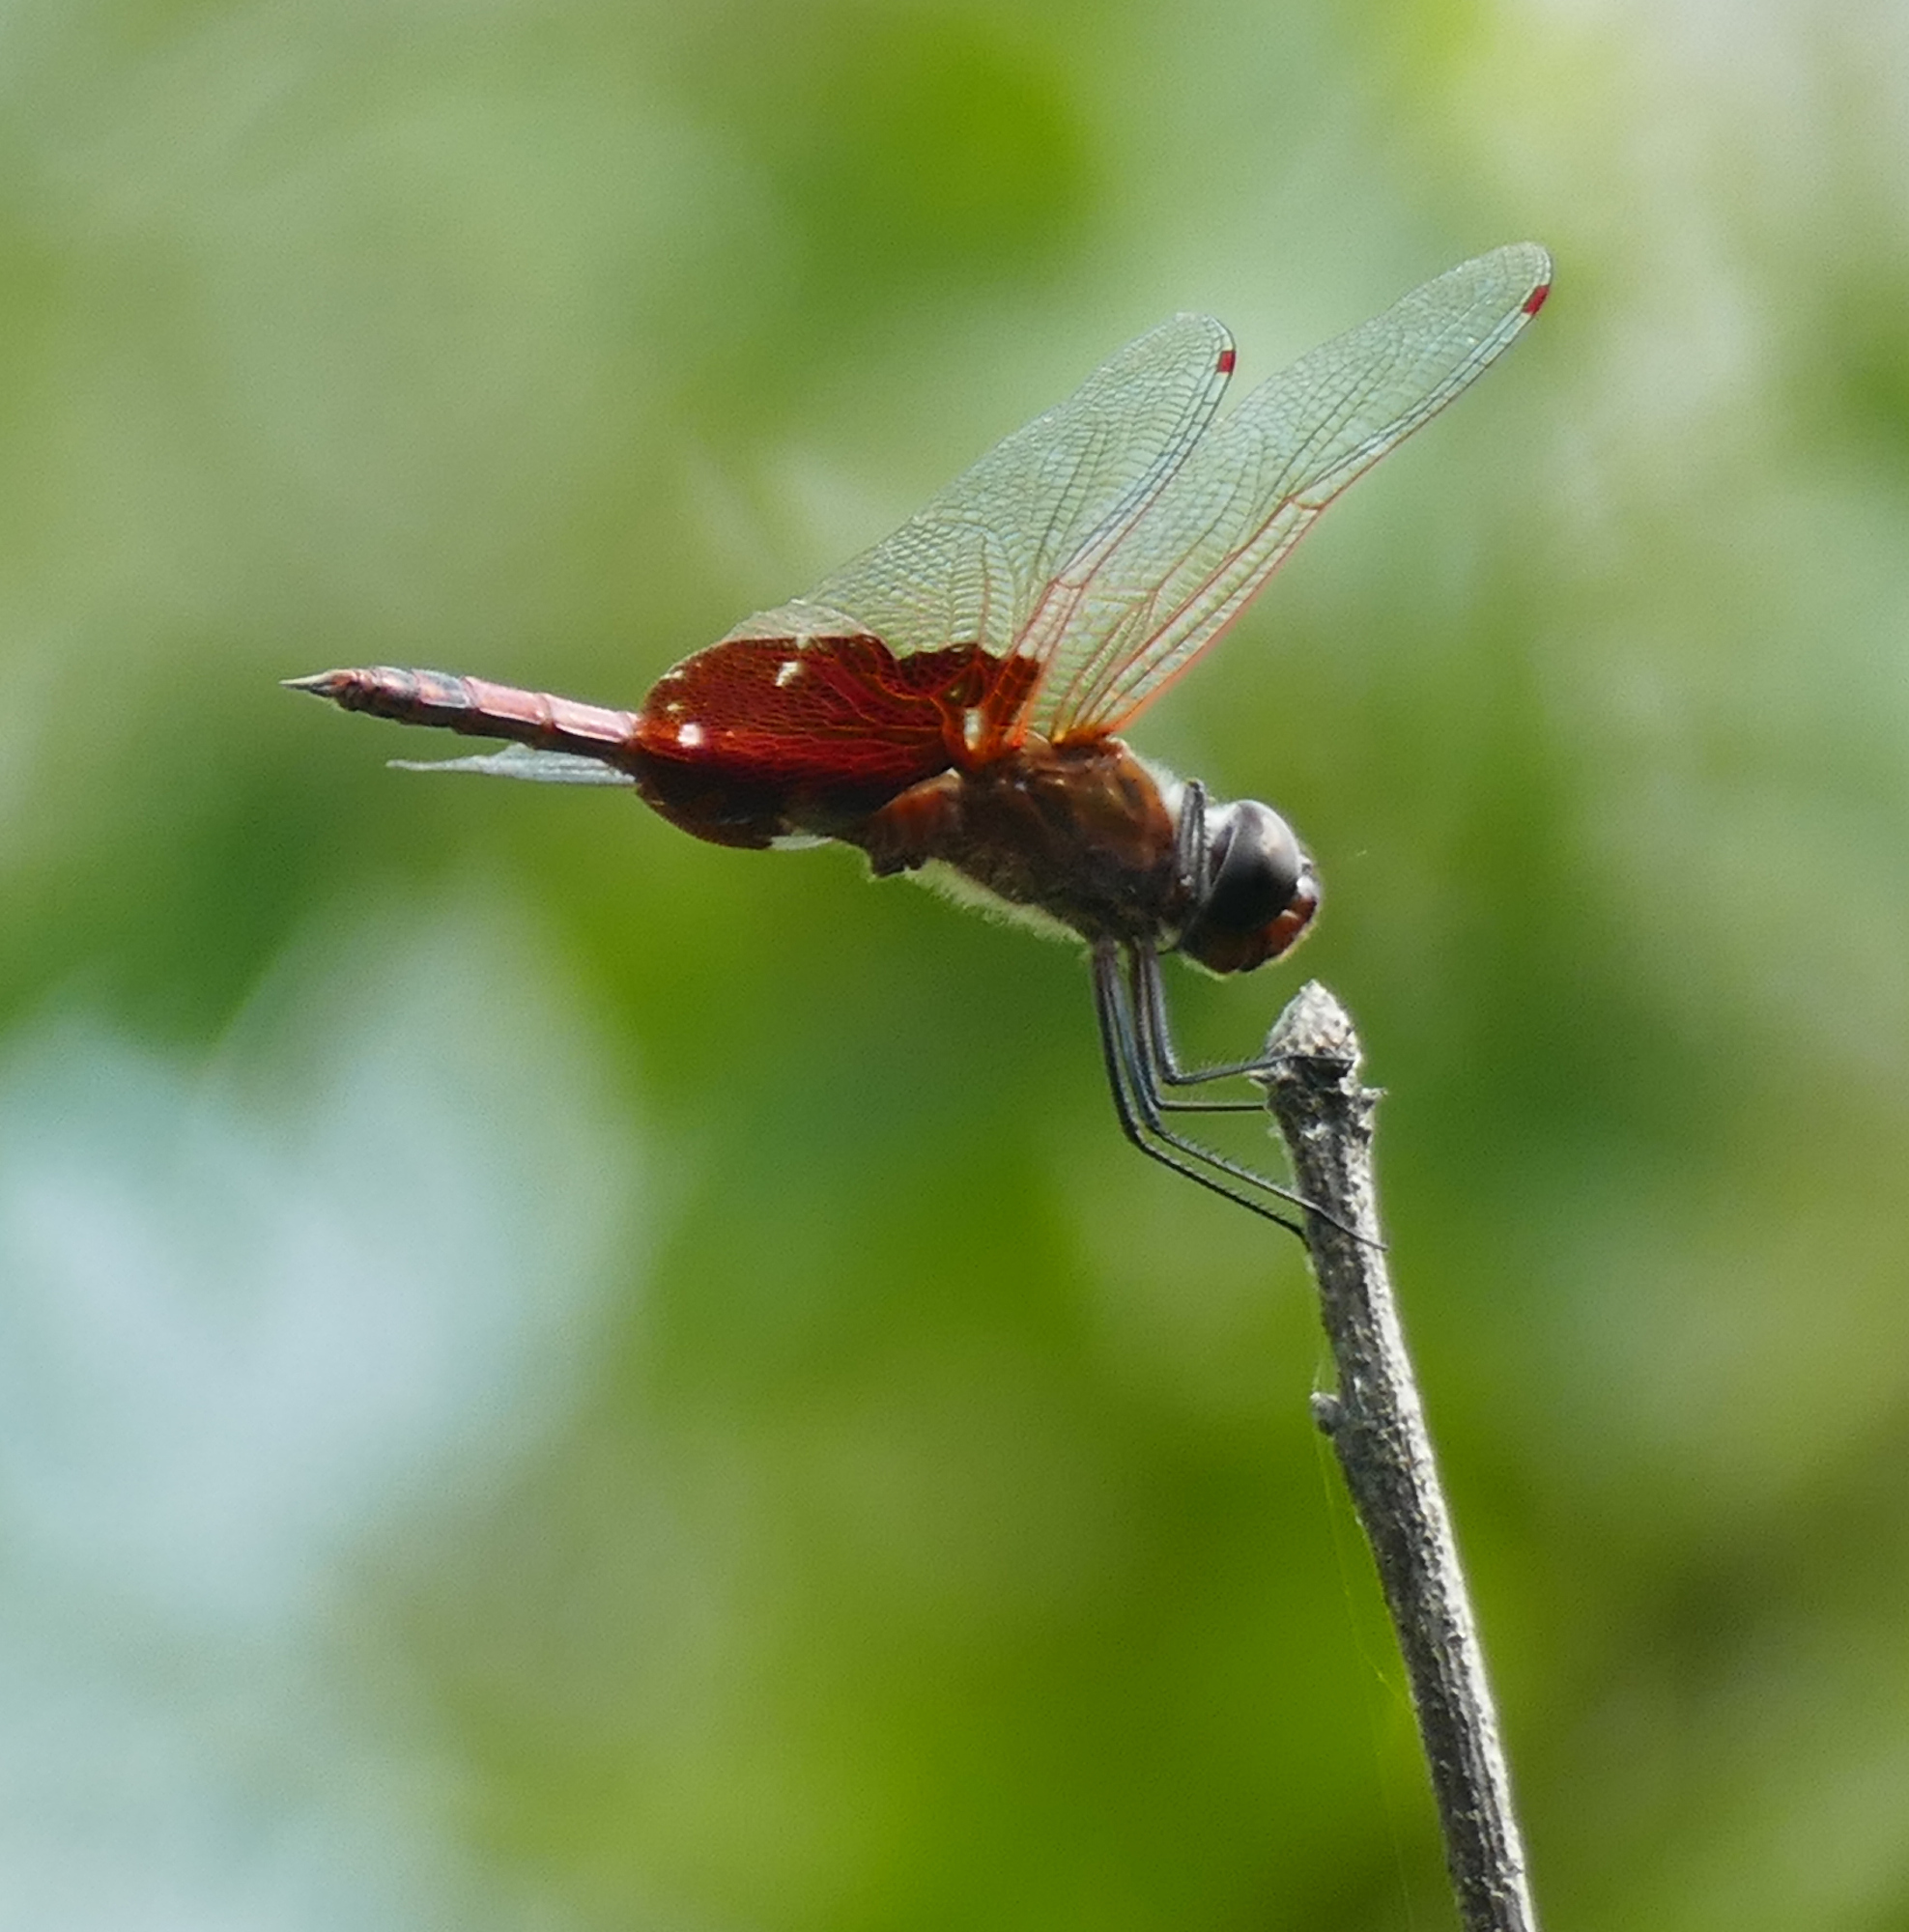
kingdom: Animalia
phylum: Arthropoda
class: Insecta
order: Odonata
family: Libellulidae
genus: Tramea
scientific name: Tramea carolina
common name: Carolina saddlebags
